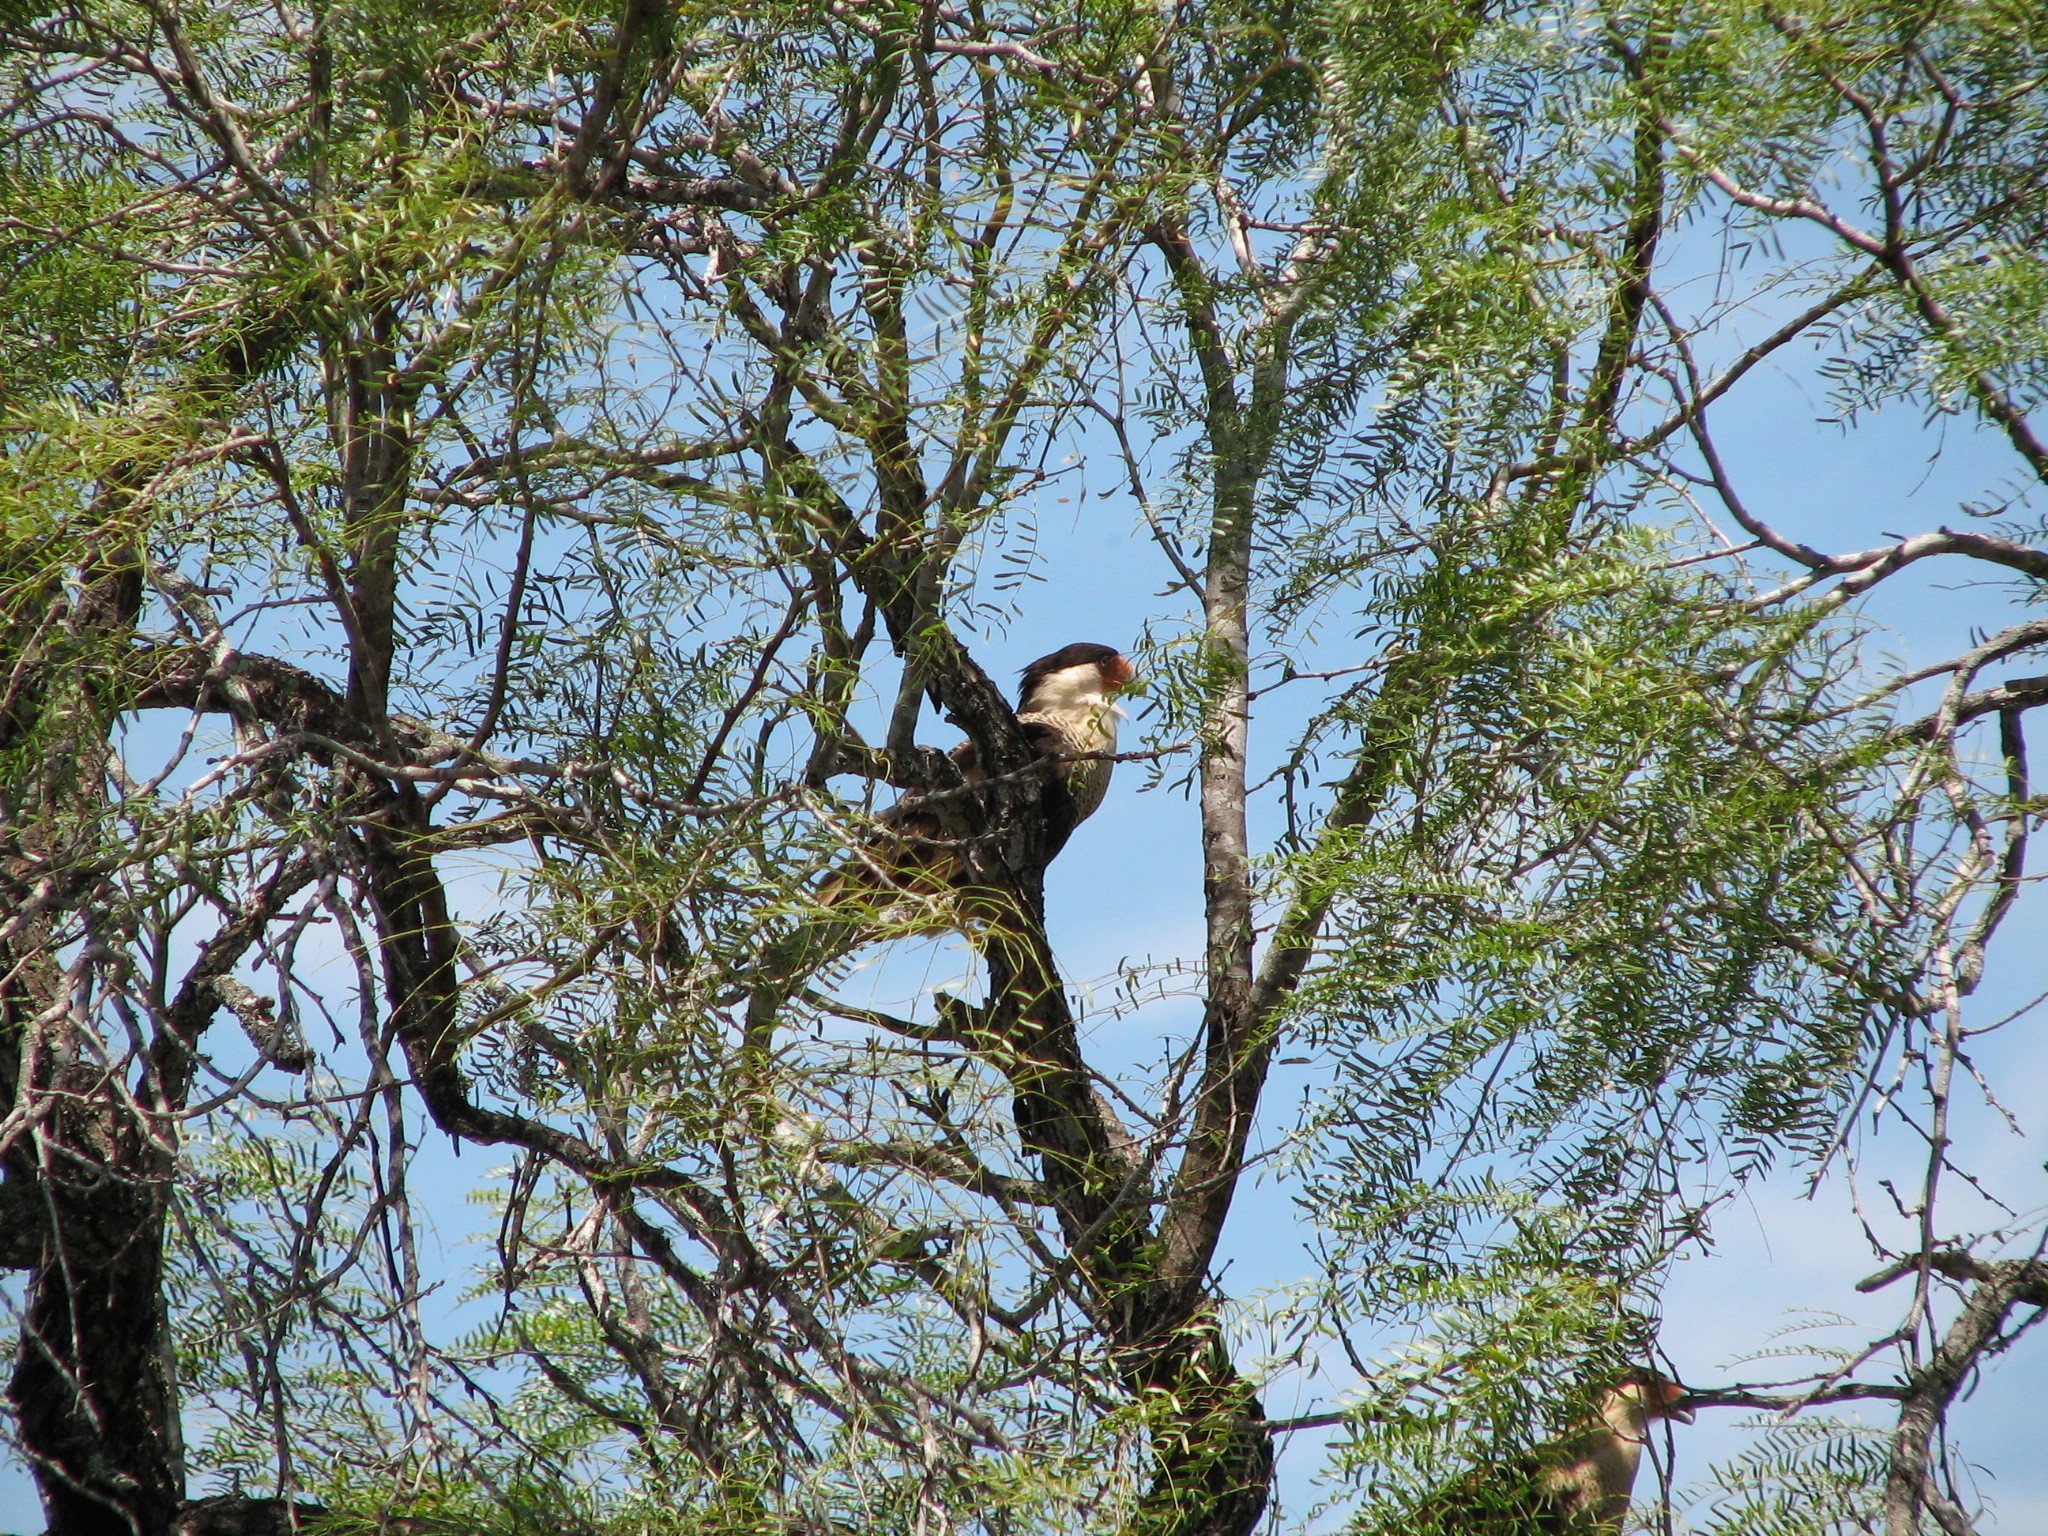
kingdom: Animalia
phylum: Chordata
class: Aves
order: Falconiformes
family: Falconidae
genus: Caracara
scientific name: Caracara plancus
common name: Southern caracara
